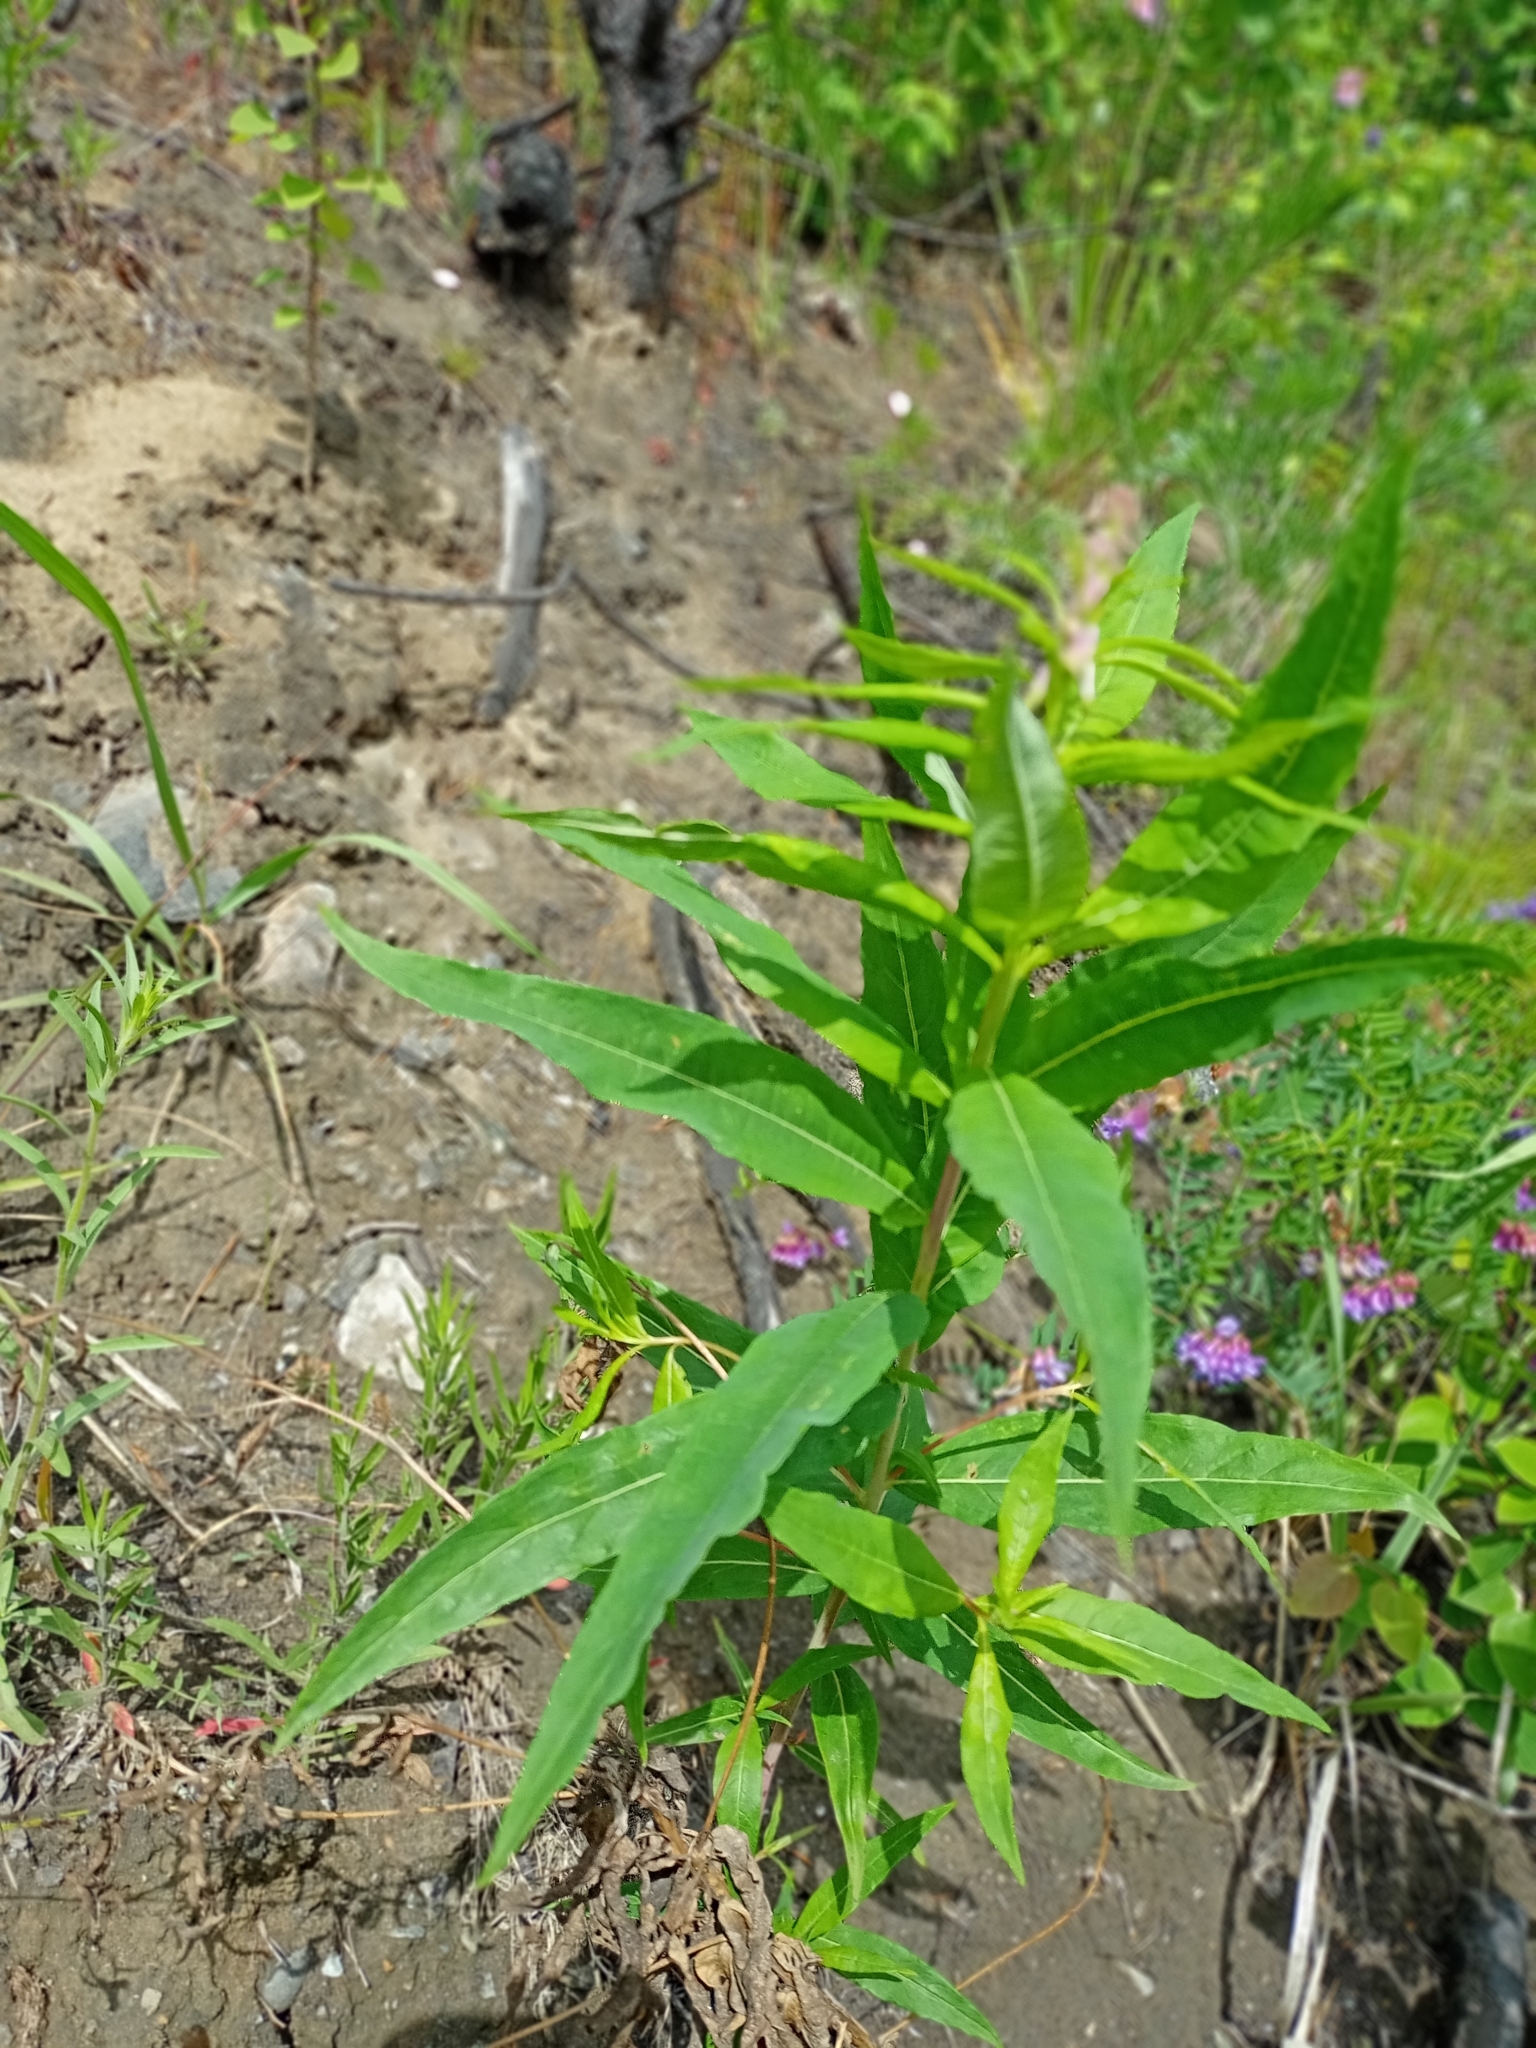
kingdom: Plantae
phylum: Tracheophyta
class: Magnoliopsida
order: Myrtales
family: Onagraceae
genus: Chamaenerion
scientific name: Chamaenerion angustifolium
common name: Fireweed
